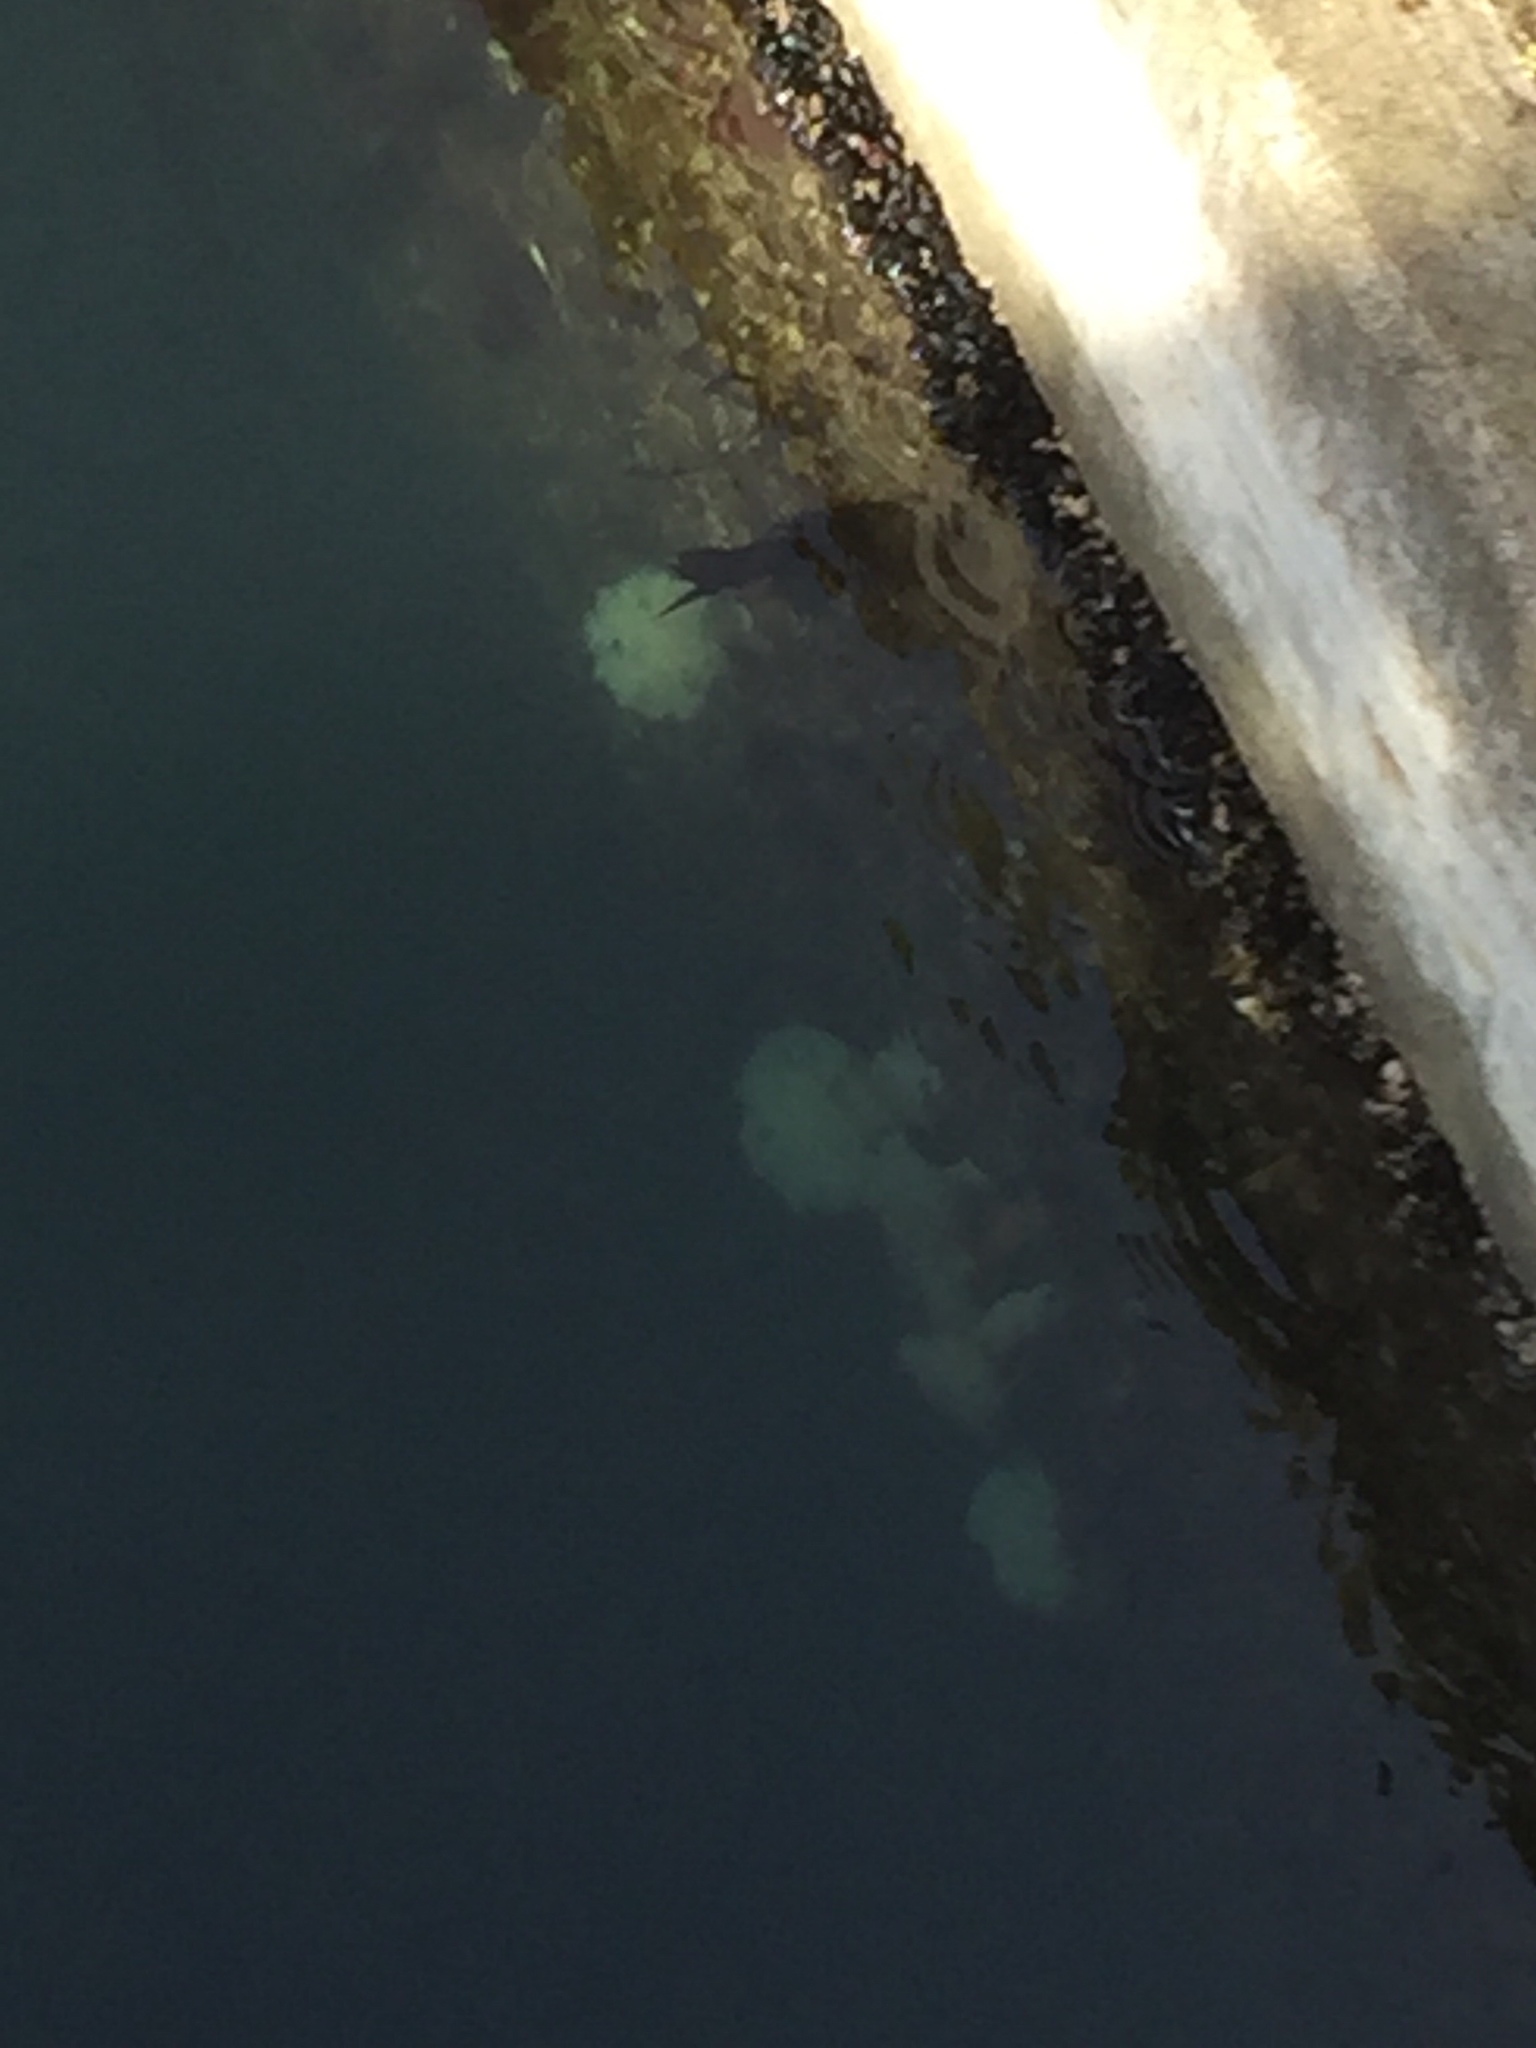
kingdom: Animalia
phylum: Cnidaria
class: Anthozoa
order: Actiniaria
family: Metridiidae
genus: Metridium
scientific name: Metridium senile
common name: Clonal plumose anemone
